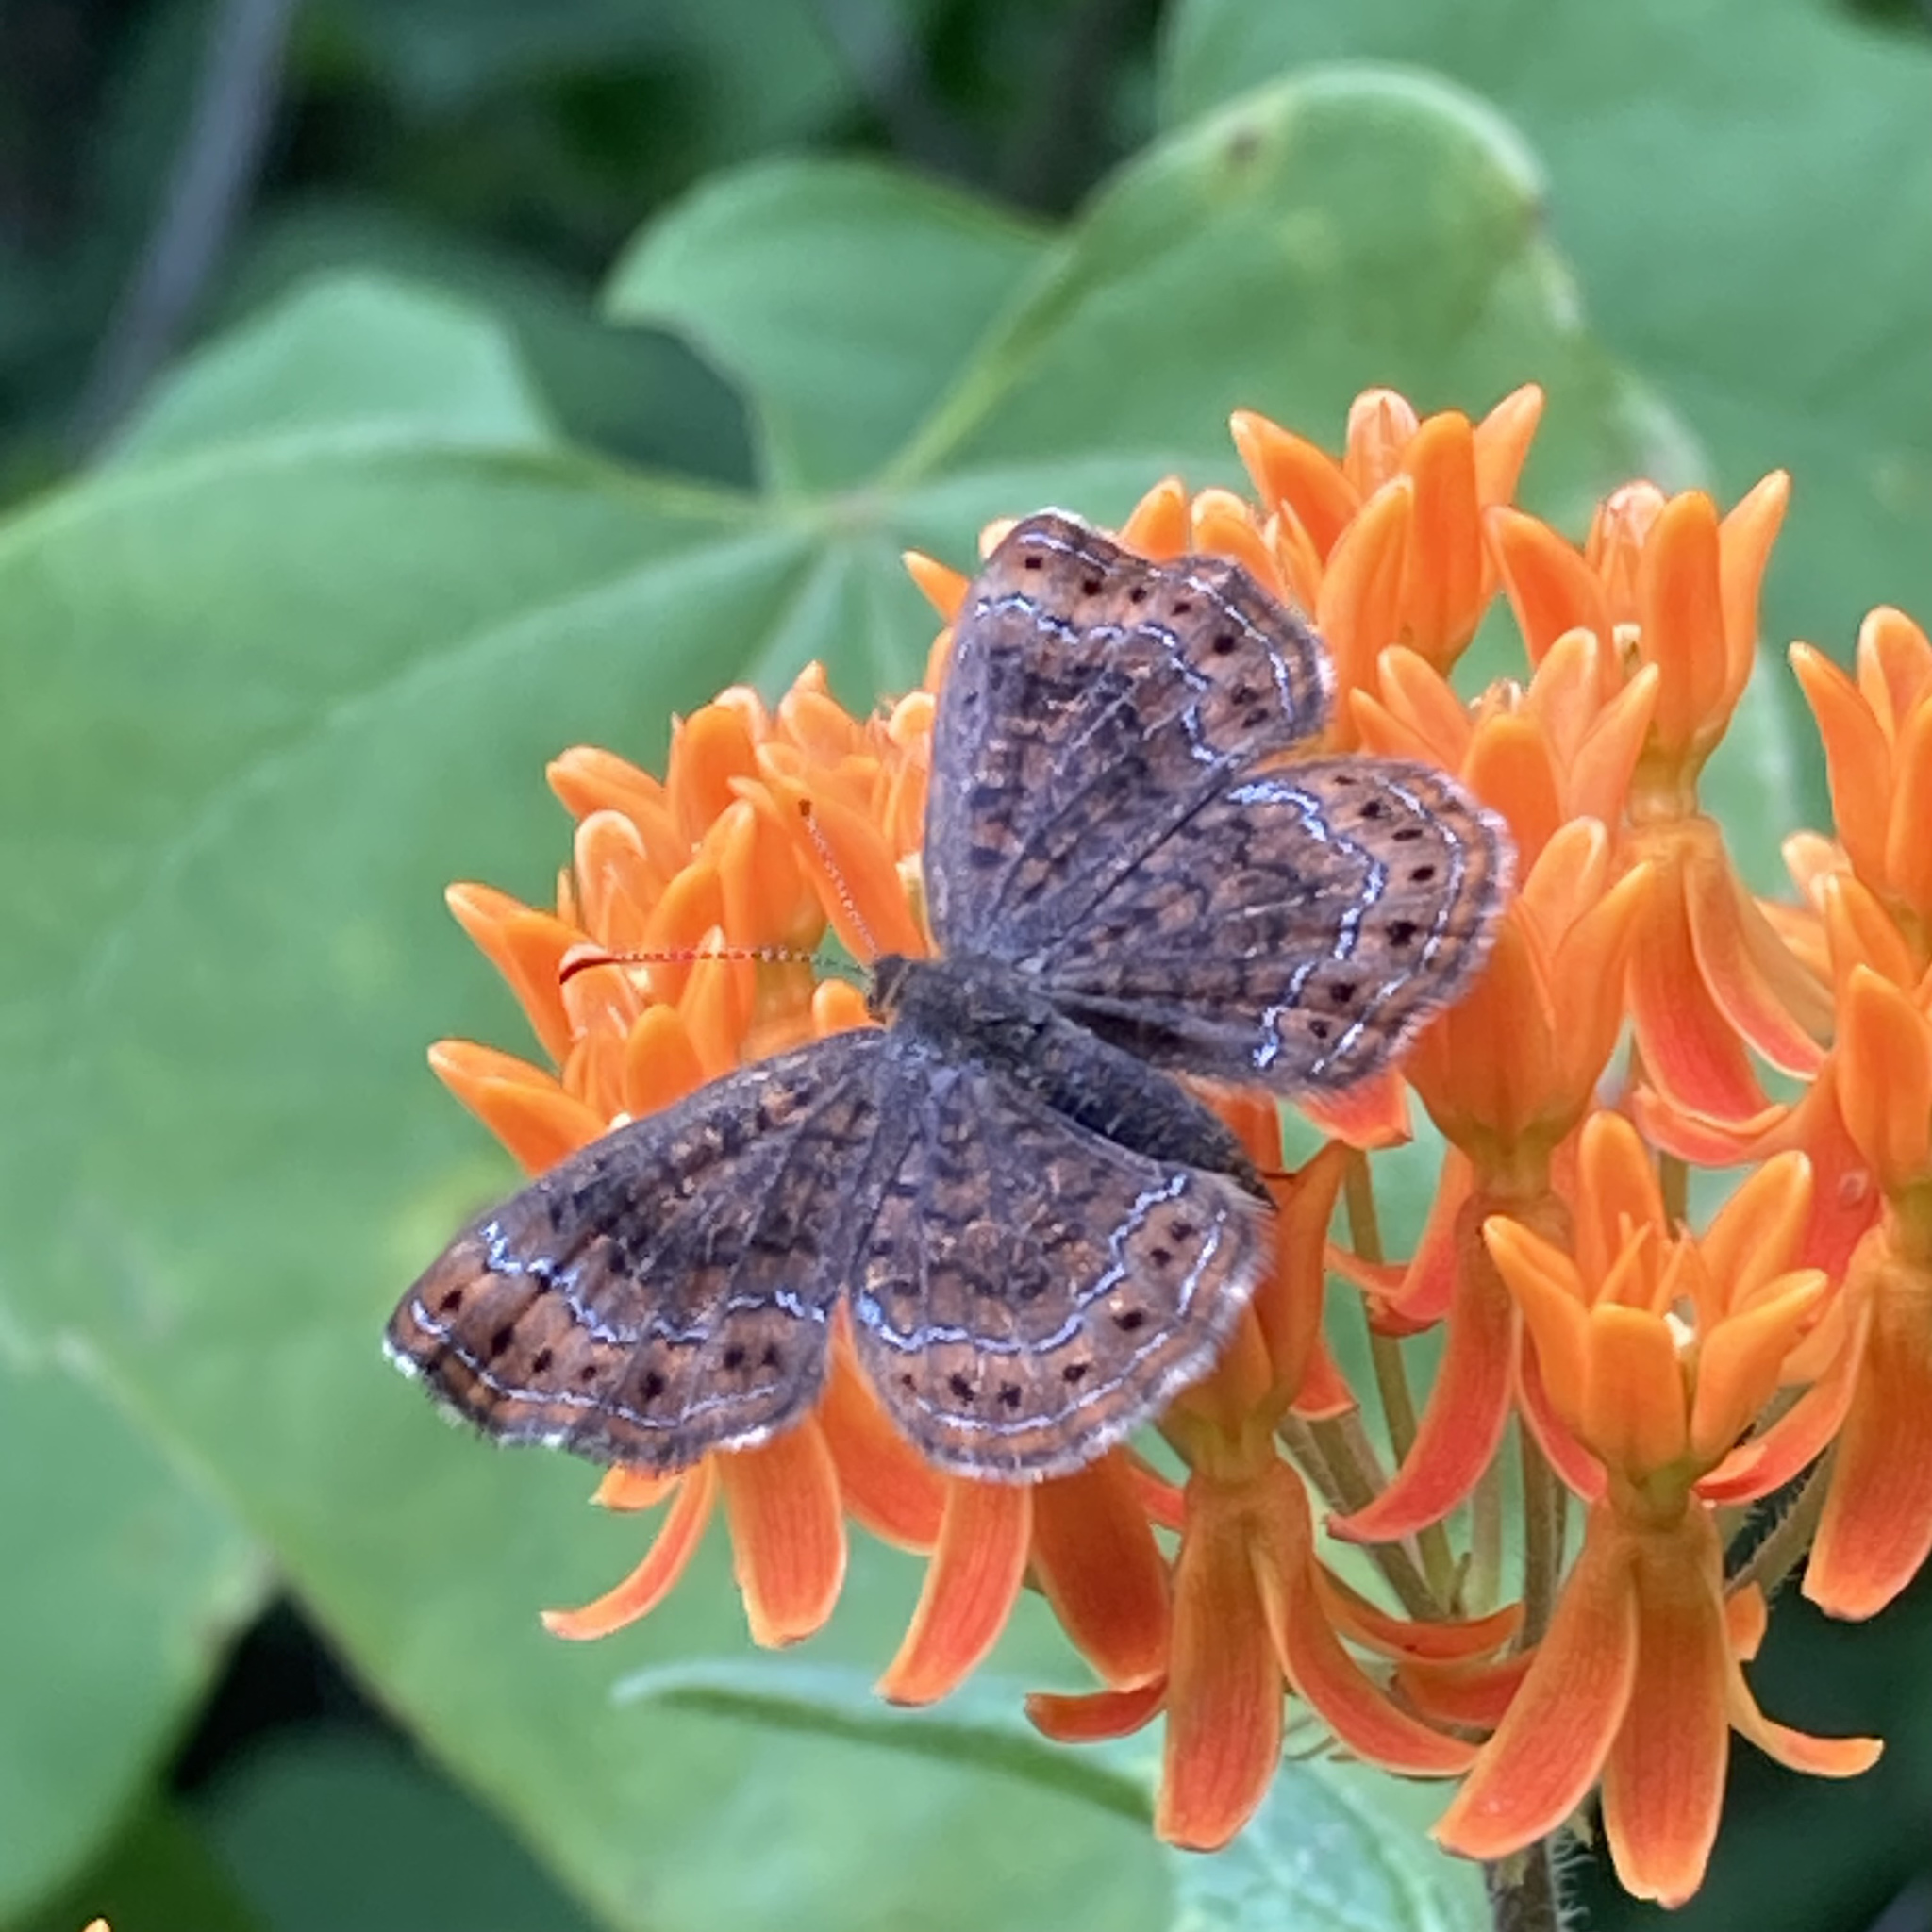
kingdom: Animalia
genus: Calephelis
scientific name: Calephelis borealis
